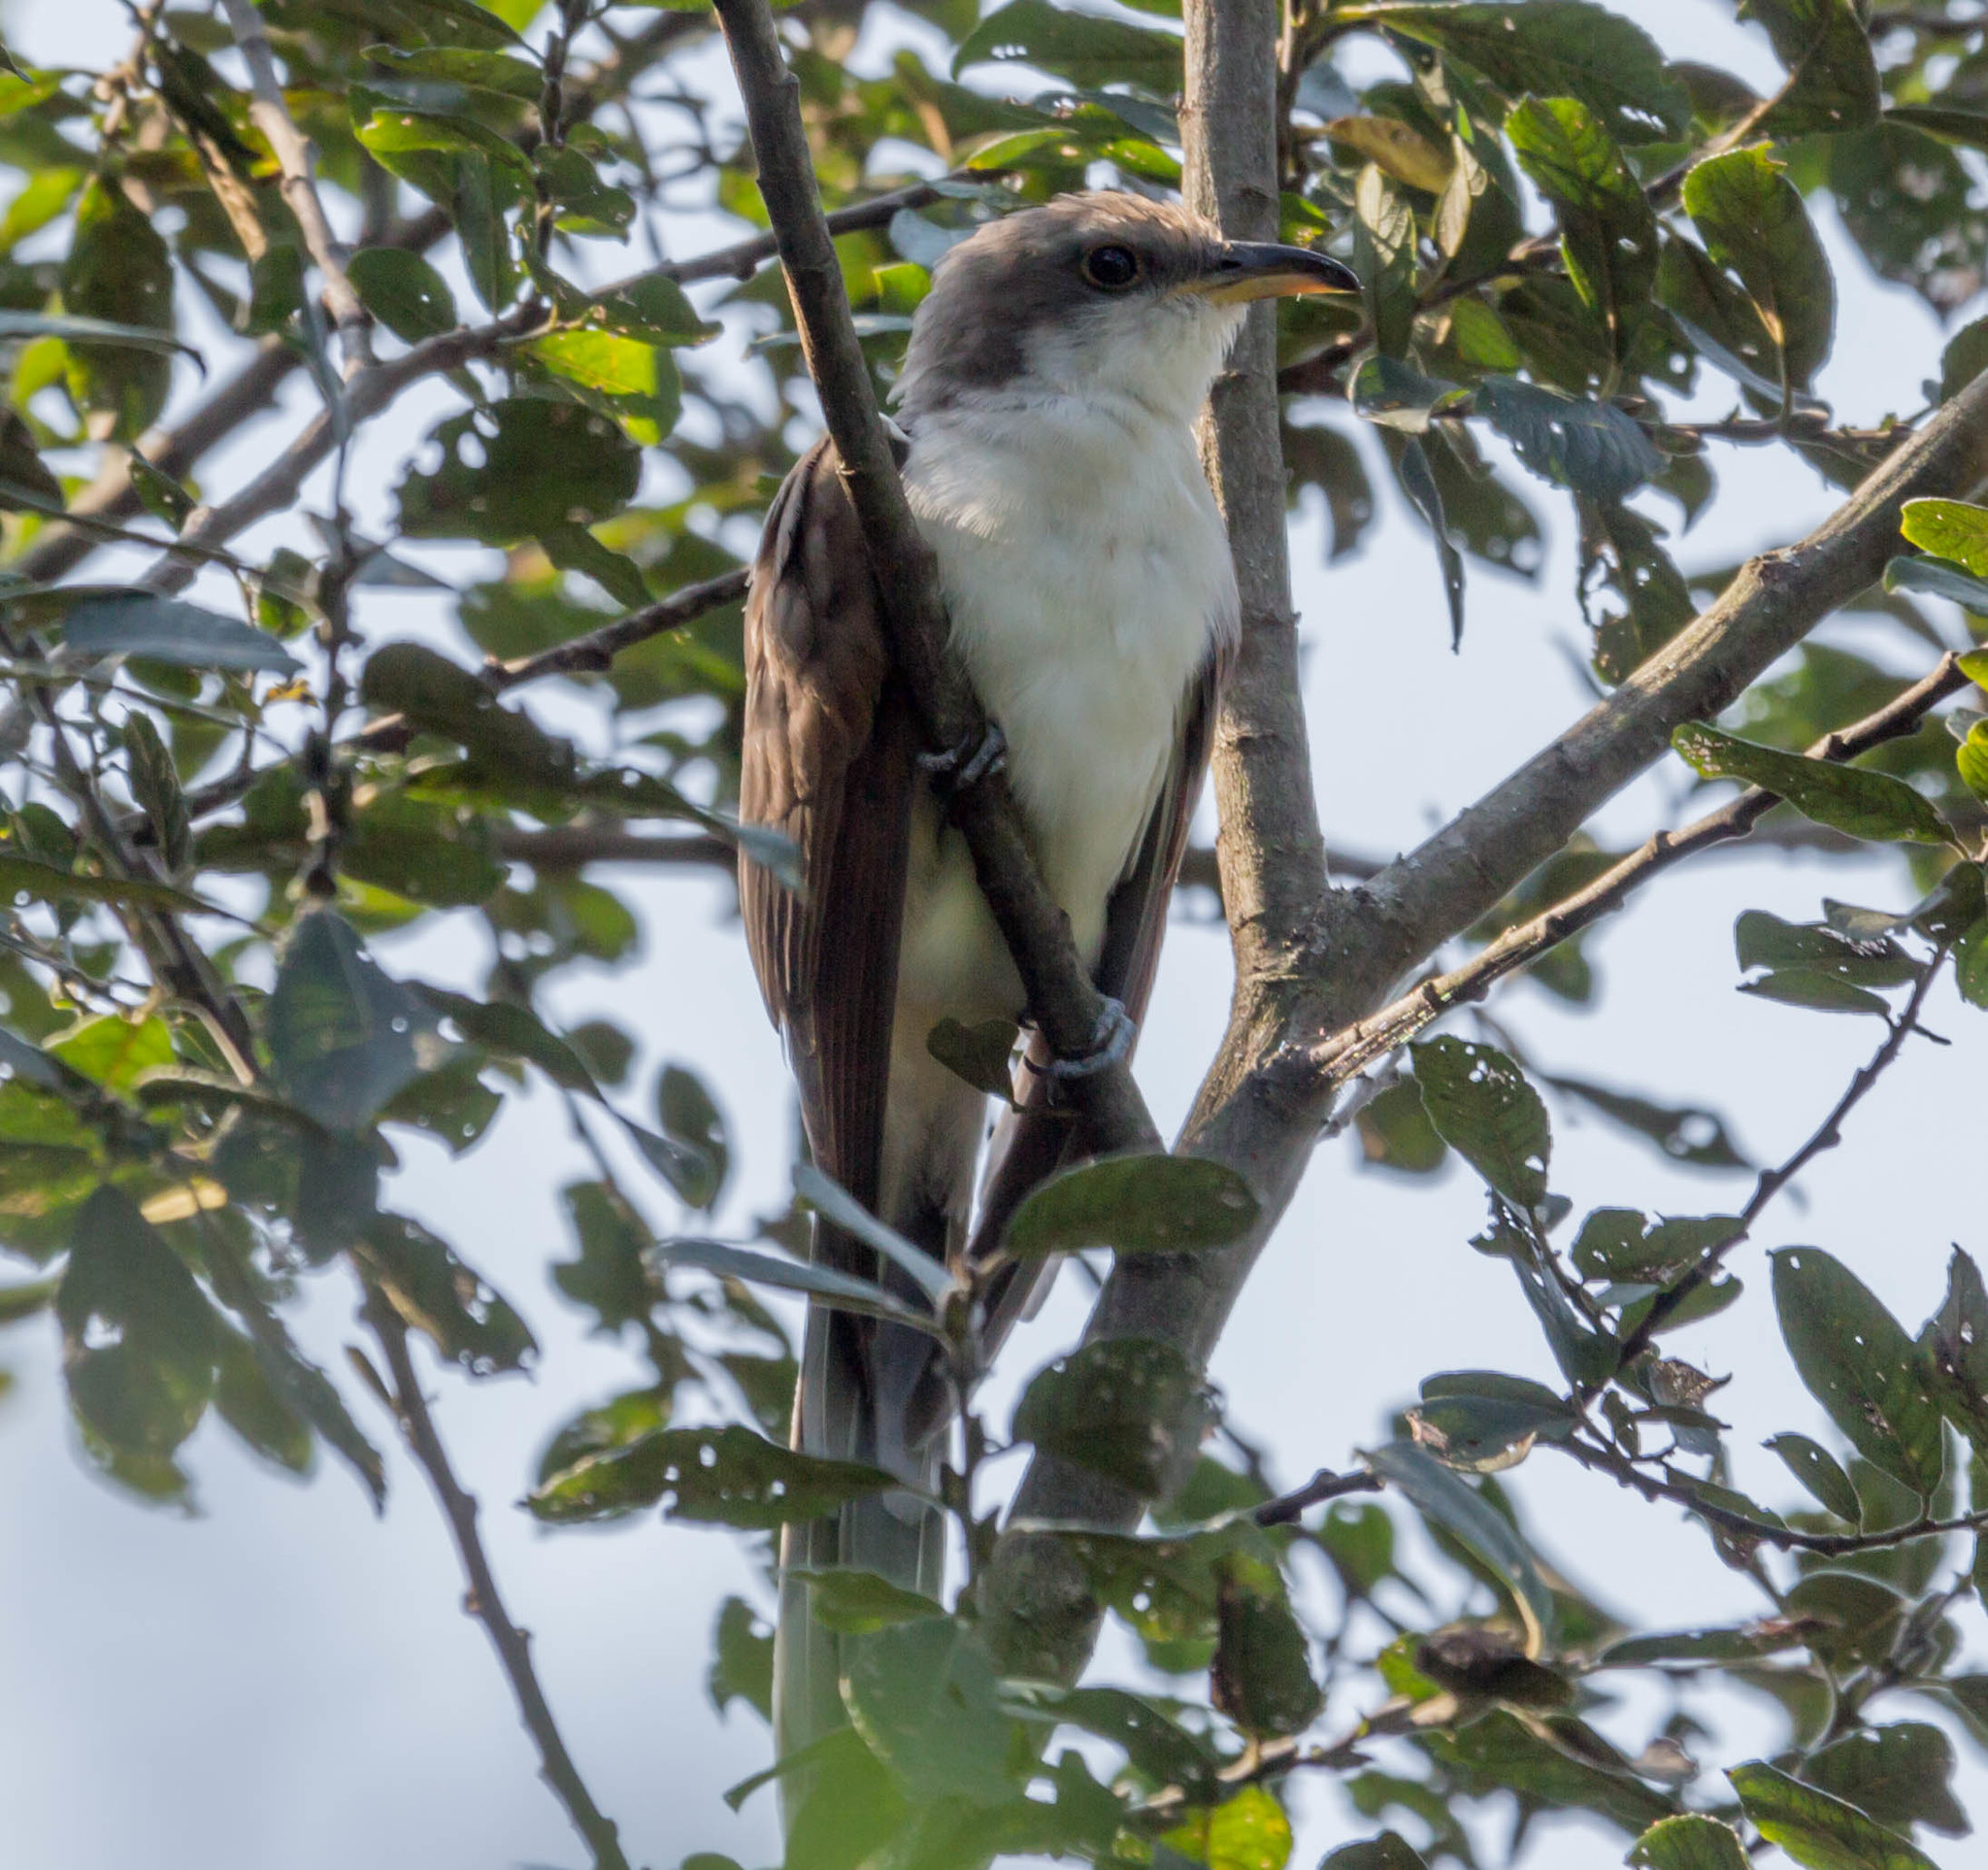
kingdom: Animalia
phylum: Chordata
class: Aves
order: Cuculiformes
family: Cuculidae
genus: Coccyzus
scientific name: Coccyzus americanus
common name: Yellow-billed cuckoo
